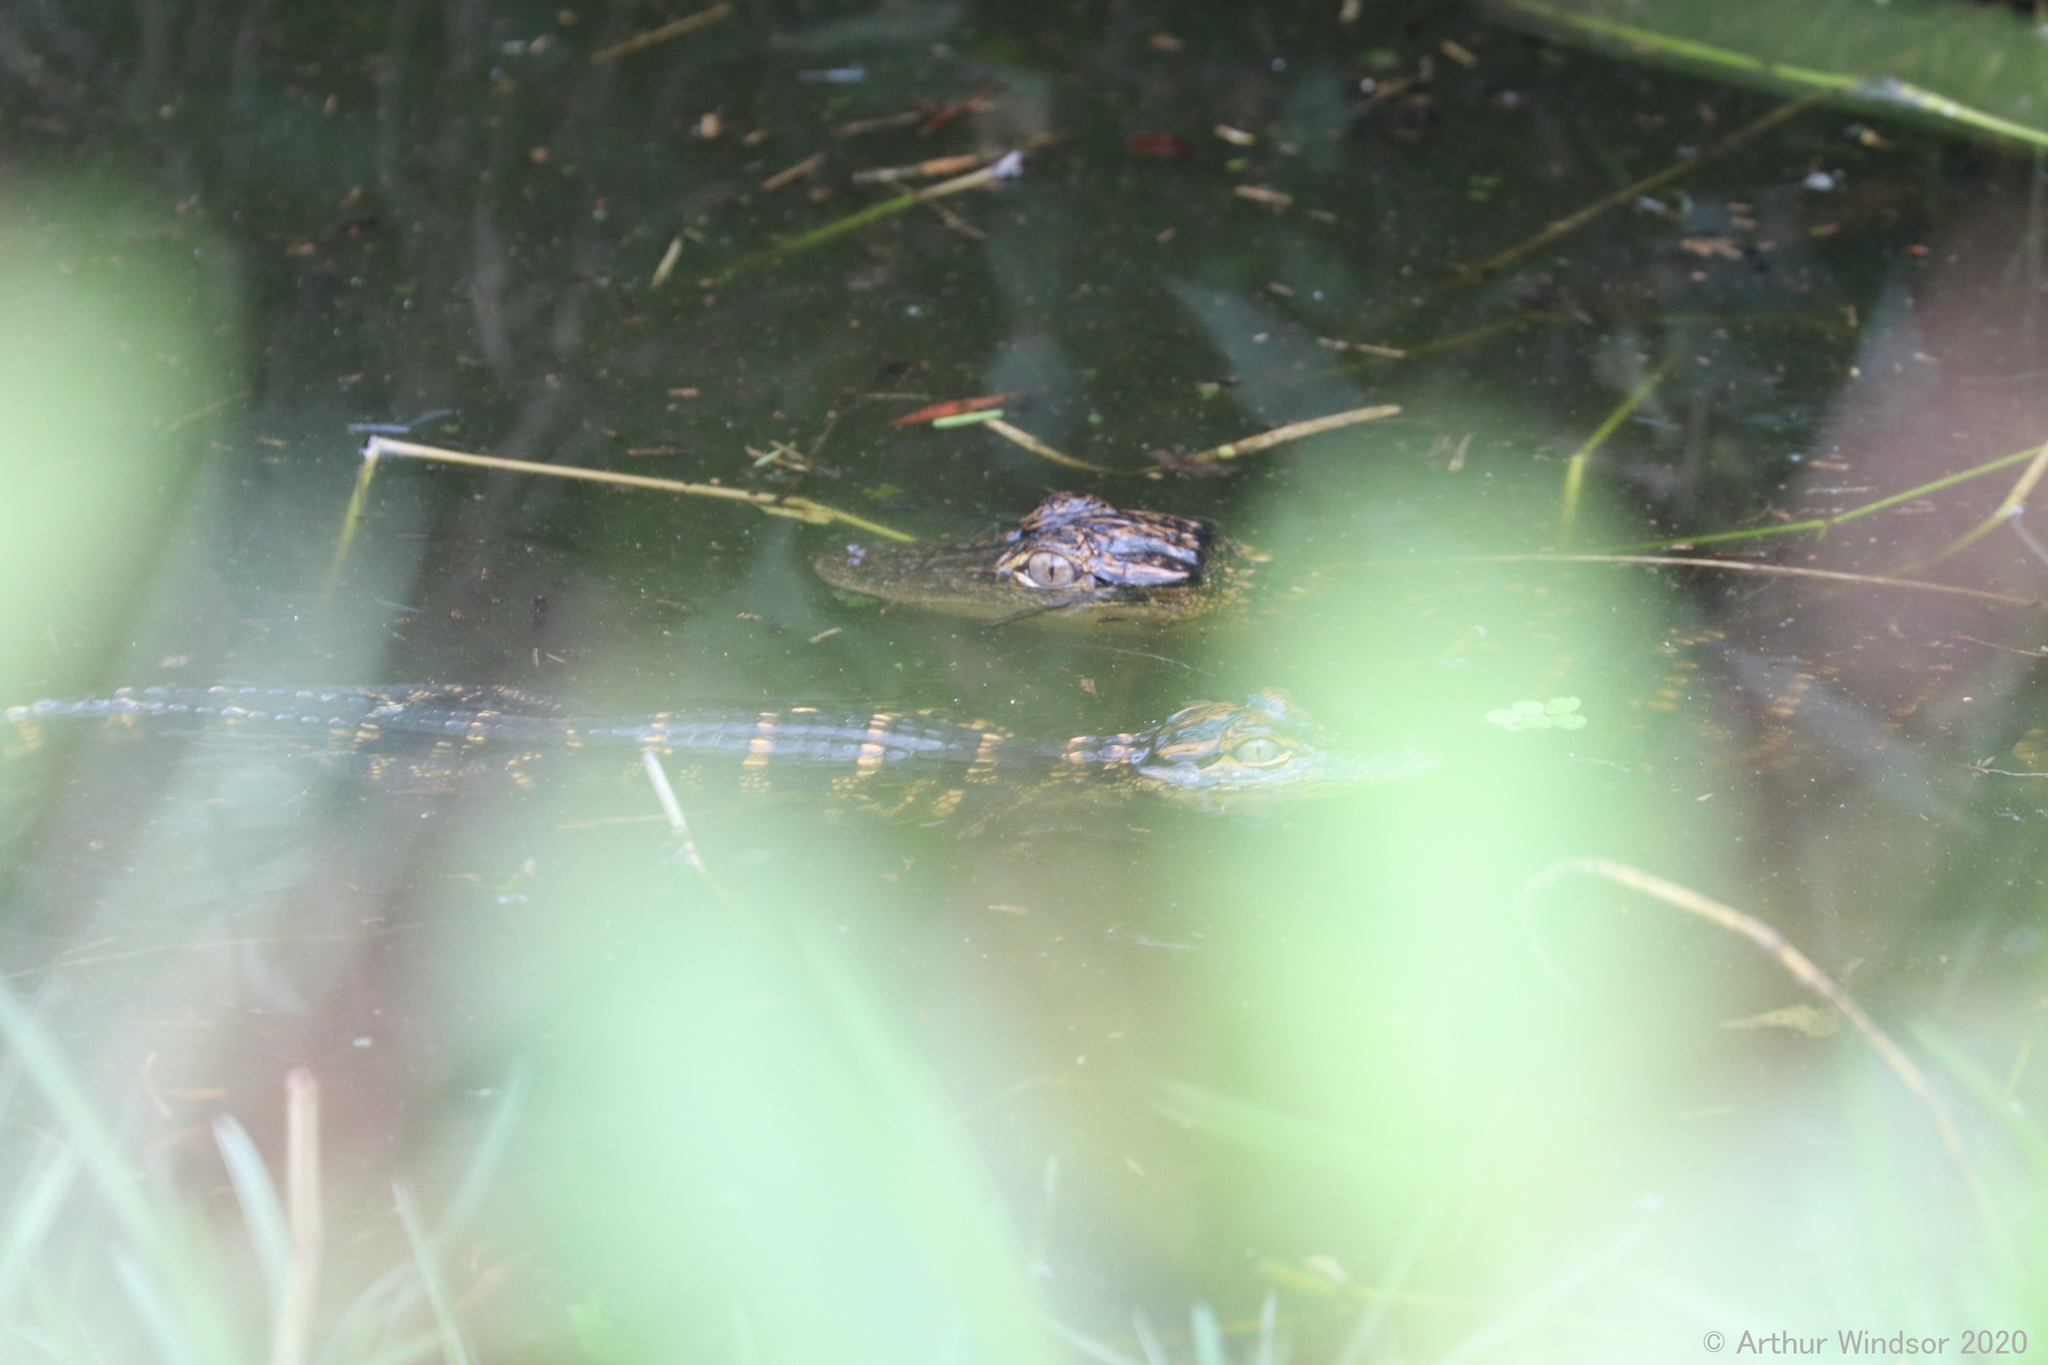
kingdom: Animalia
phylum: Chordata
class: Crocodylia
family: Alligatoridae
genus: Alligator
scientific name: Alligator mississippiensis
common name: American alligator
